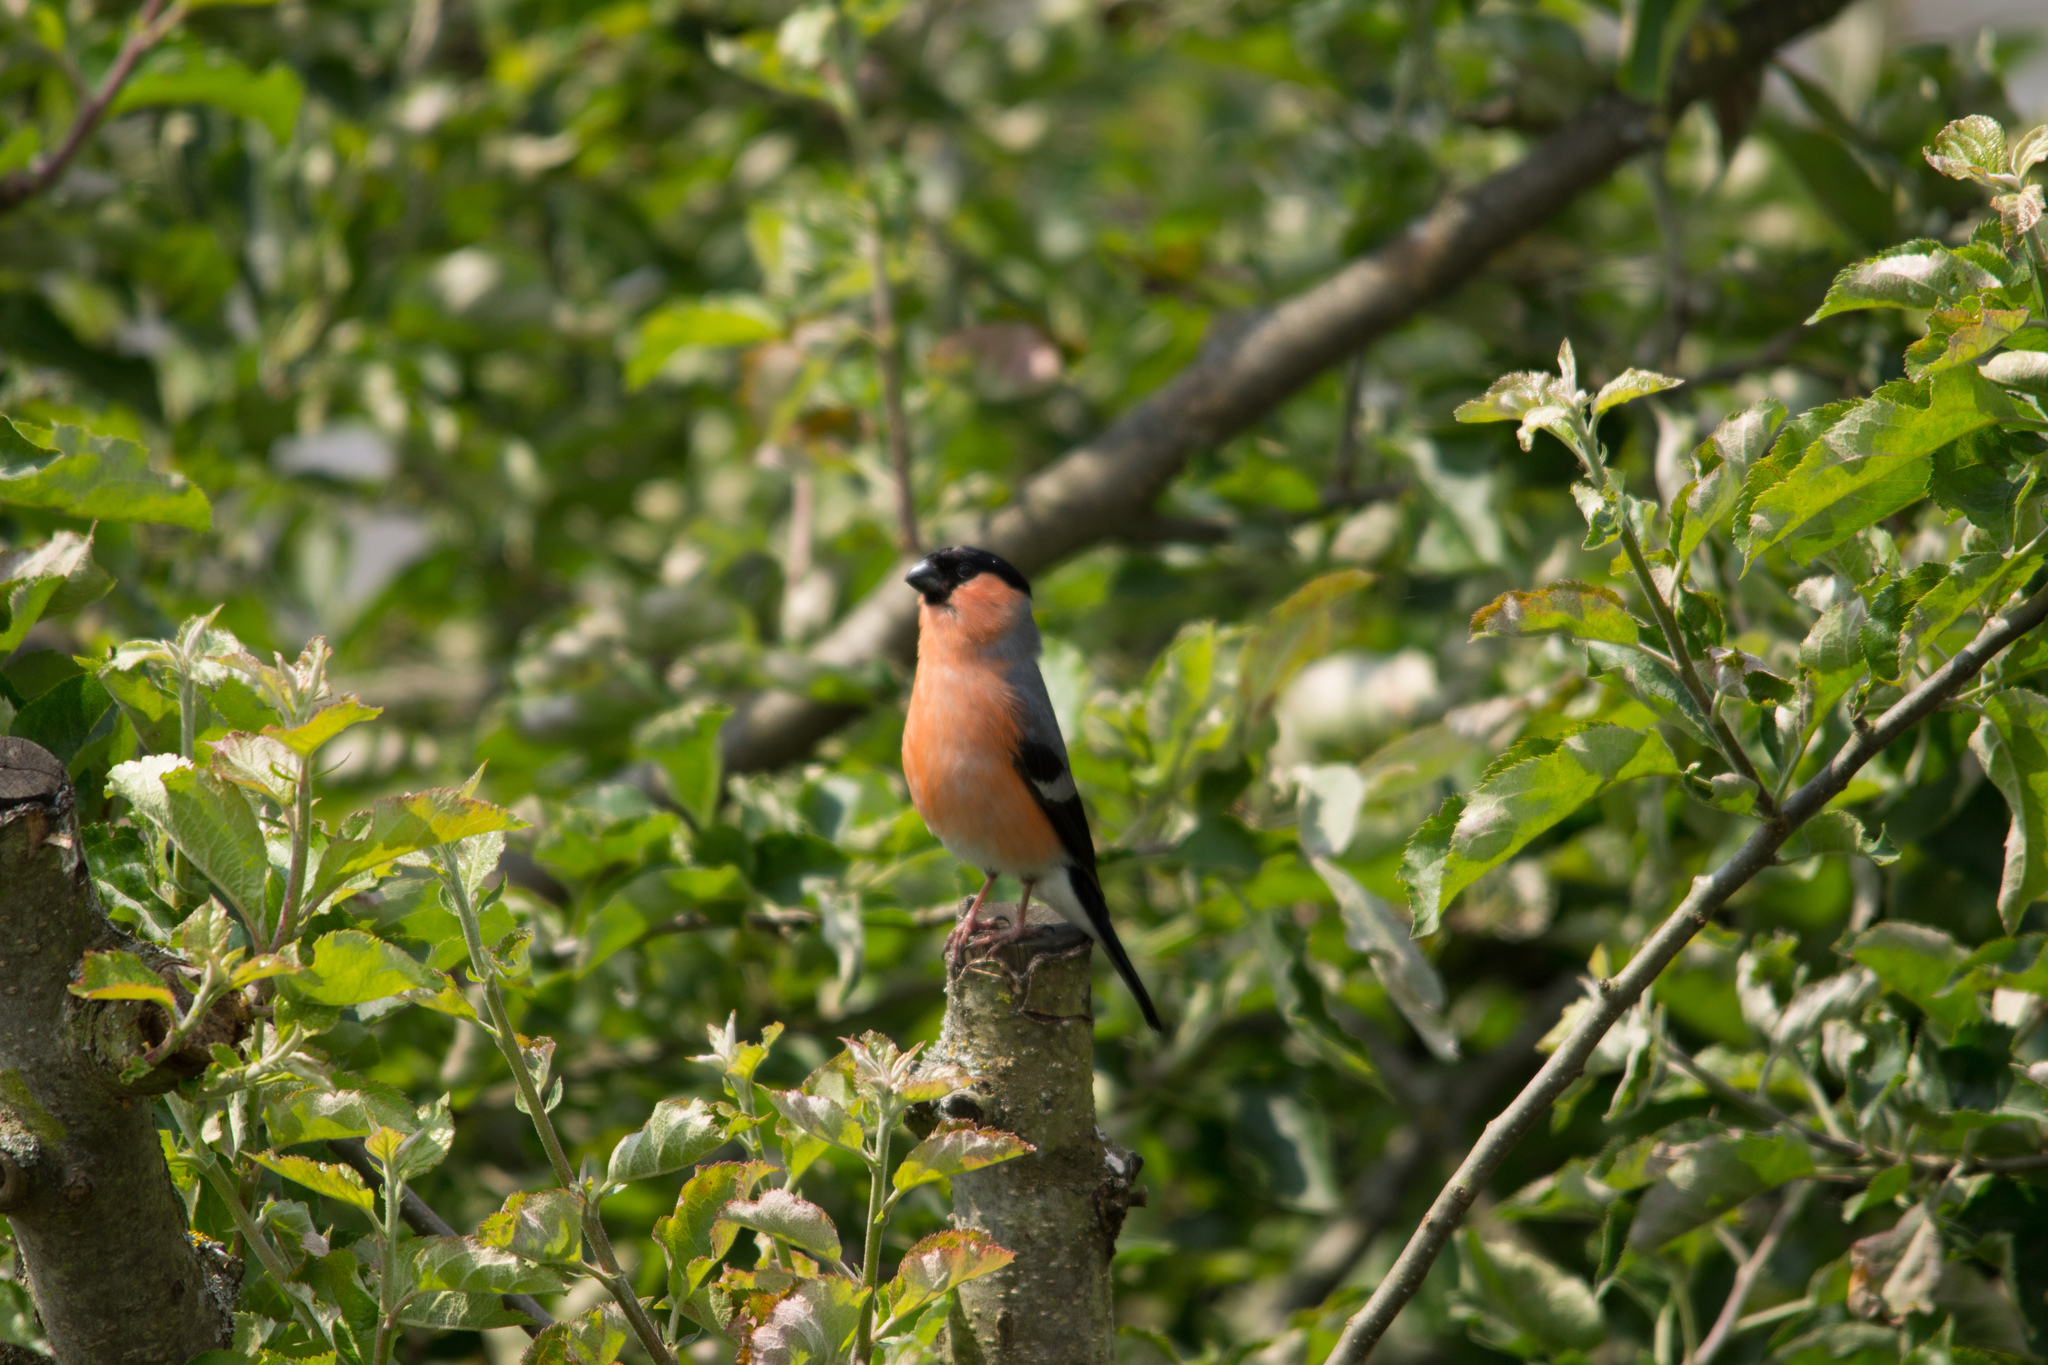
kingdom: Animalia
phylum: Chordata
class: Aves
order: Passeriformes
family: Fringillidae
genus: Pyrrhula
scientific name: Pyrrhula pyrrhula
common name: Eurasian bullfinch
